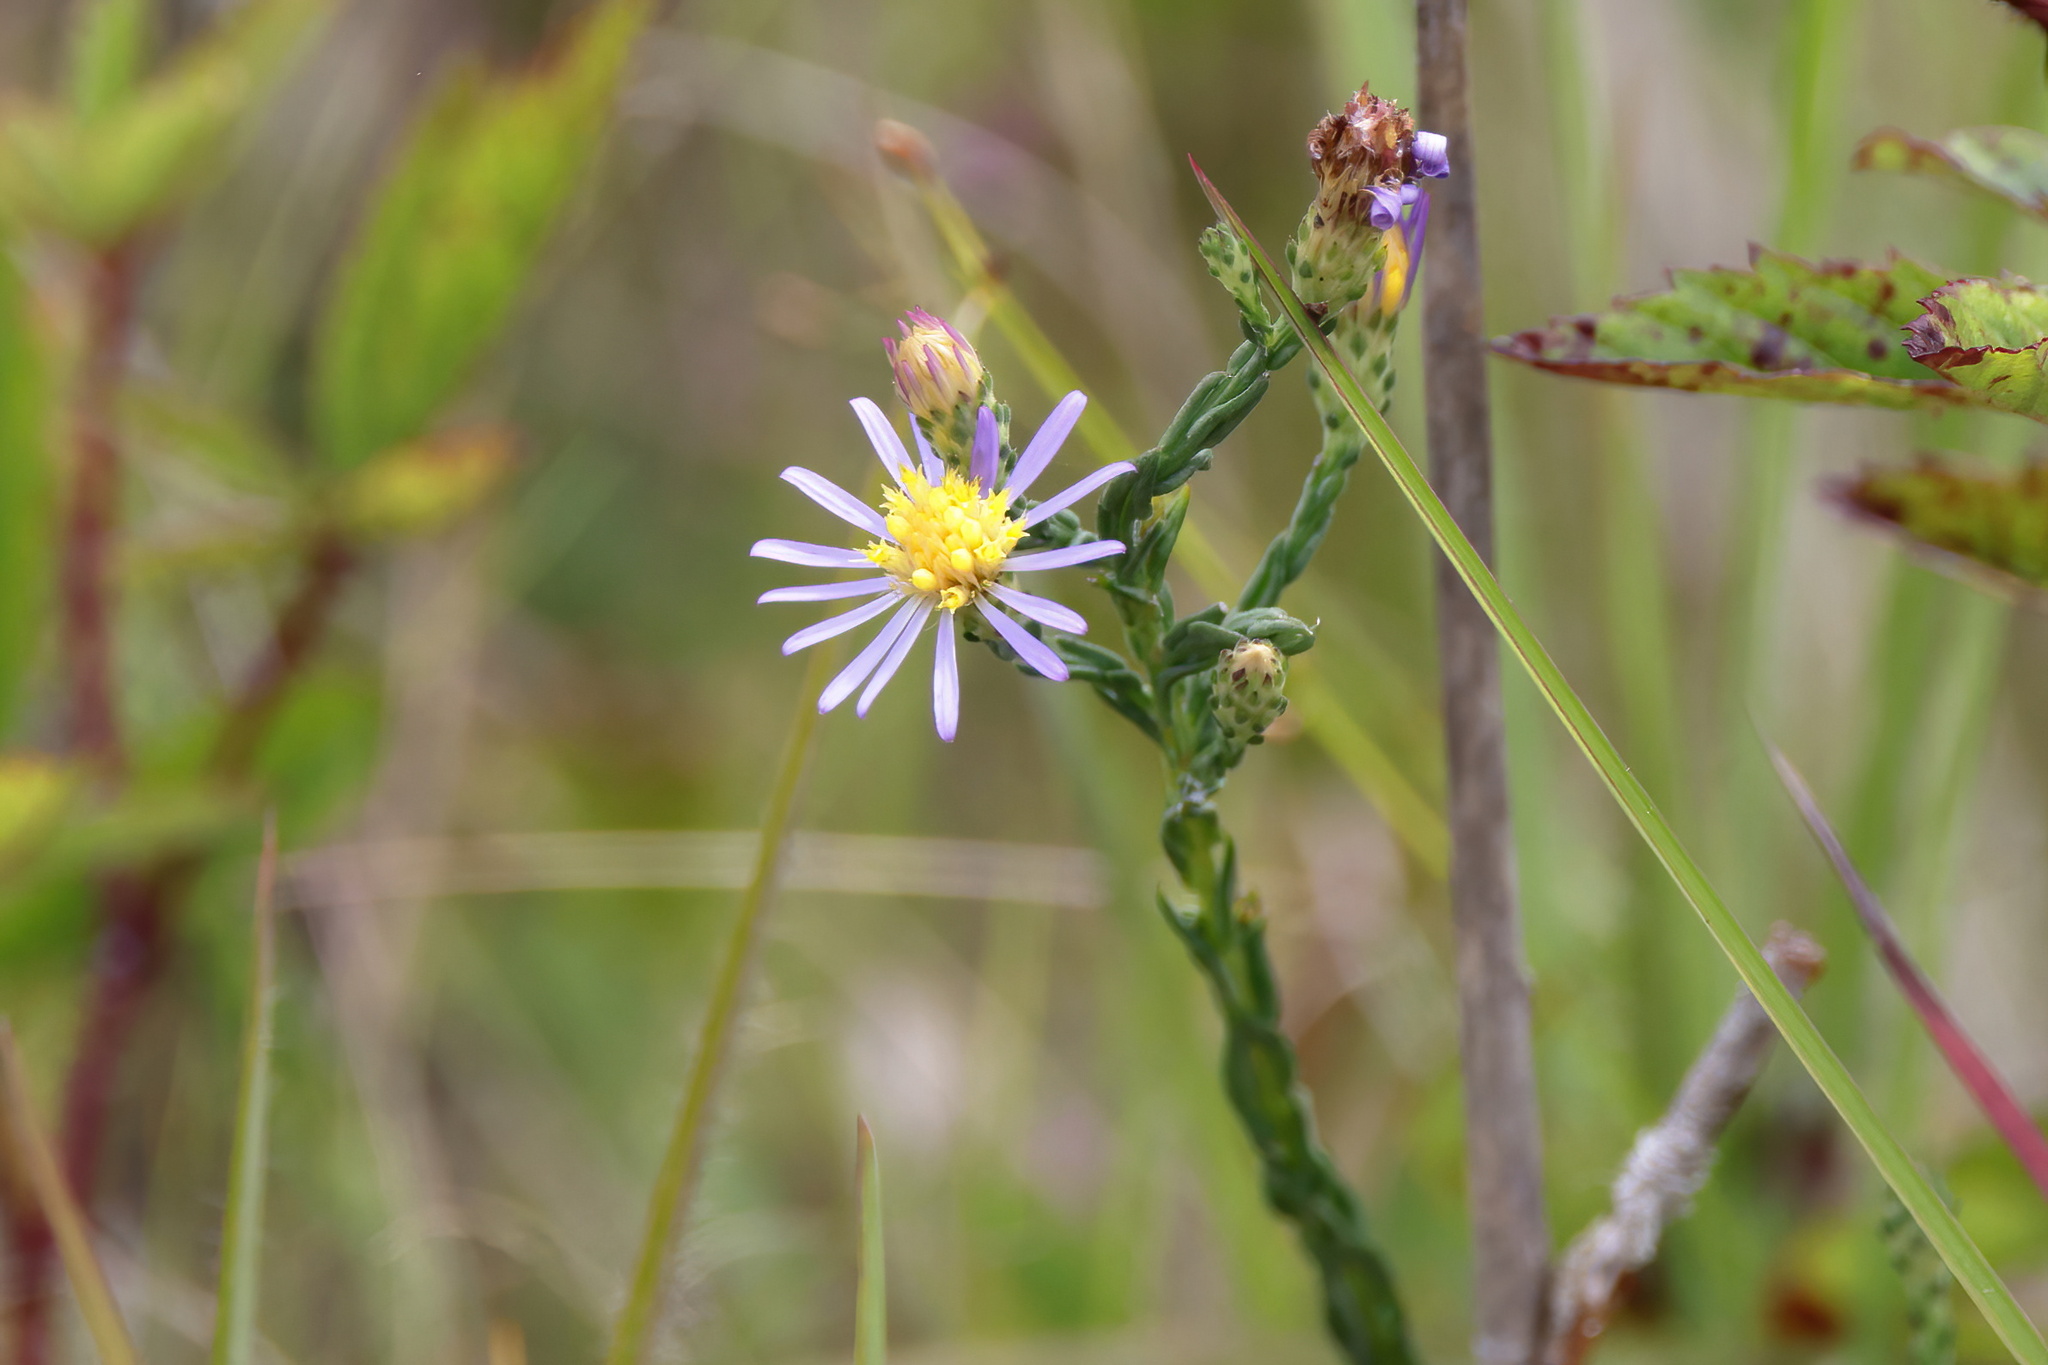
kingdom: Plantae
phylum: Tracheophyta
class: Magnoliopsida
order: Asterales
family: Asteraceae
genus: Symphyotrichum
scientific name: Symphyotrichum adnatum
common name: Scale-leaf aster
